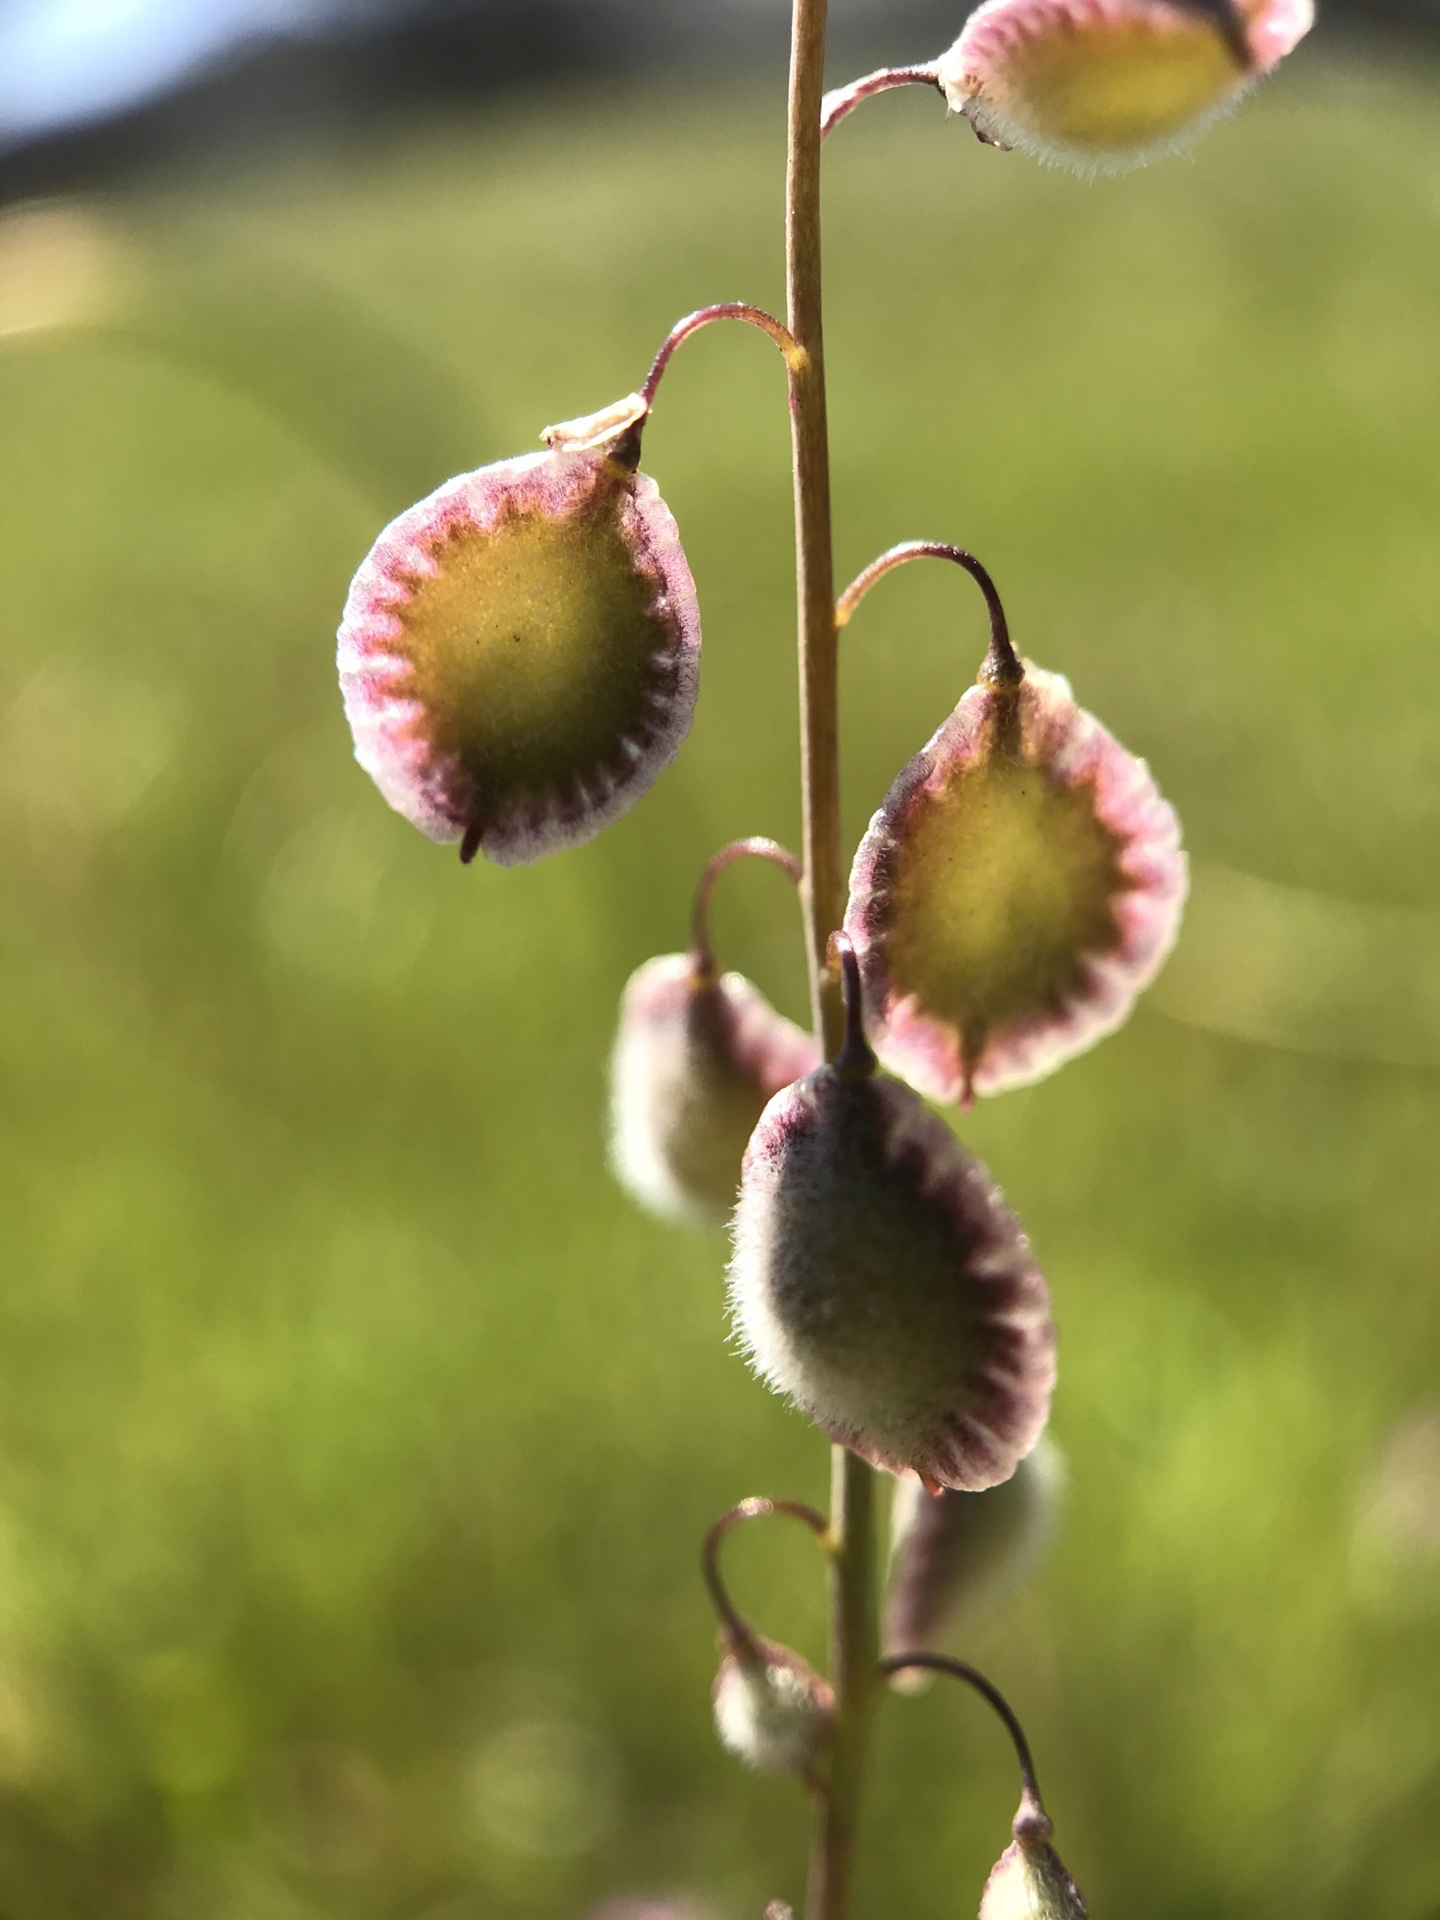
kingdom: Plantae
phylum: Tracheophyta
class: Magnoliopsida
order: Brassicales
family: Brassicaceae
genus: Thysanocarpus
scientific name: Thysanocarpus curvipes
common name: Sand fringepod
